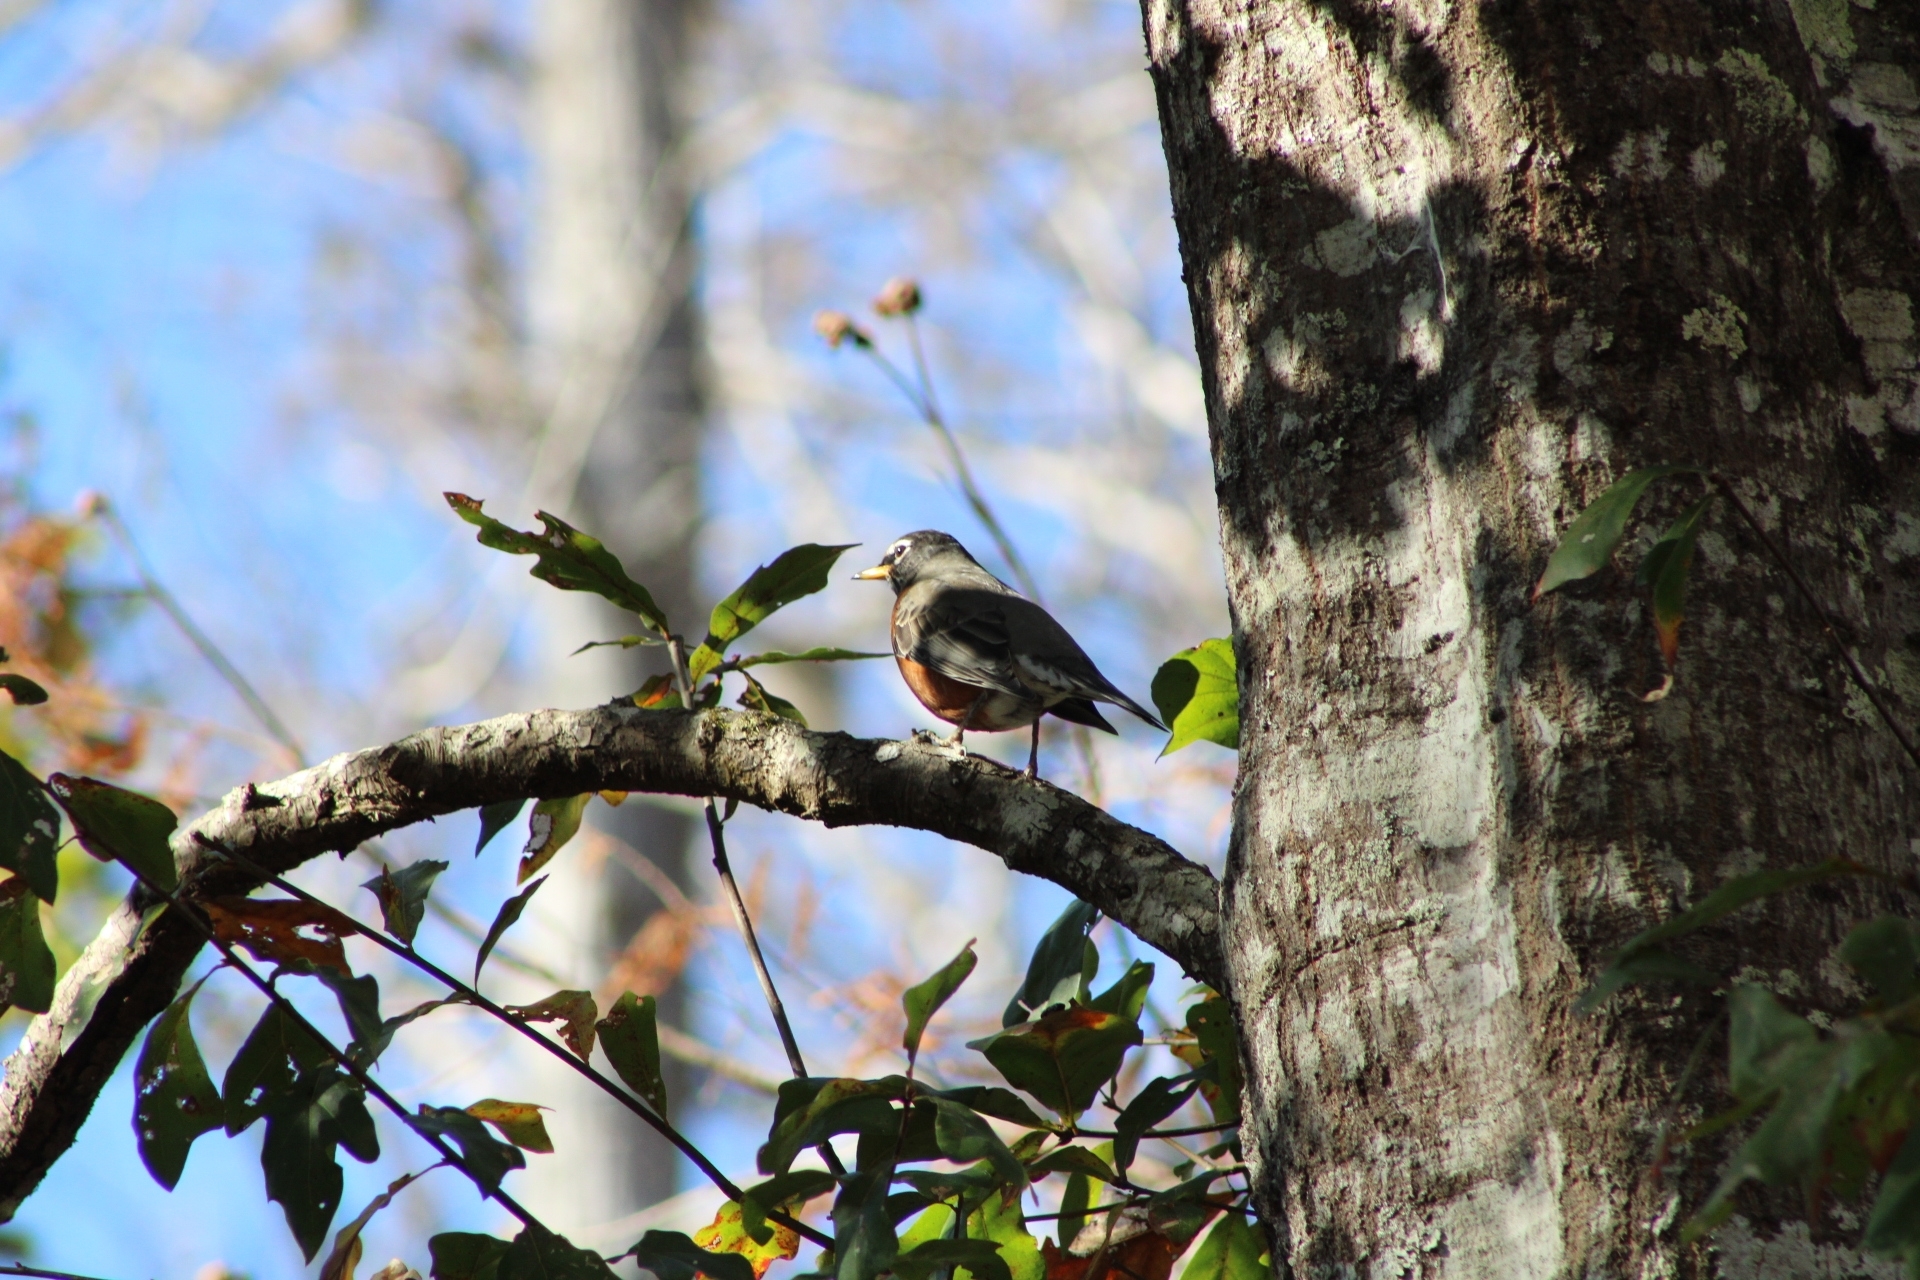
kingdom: Animalia
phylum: Chordata
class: Aves
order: Passeriformes
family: Turdidae
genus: Turdus
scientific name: Turdus migratorius
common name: American robin
